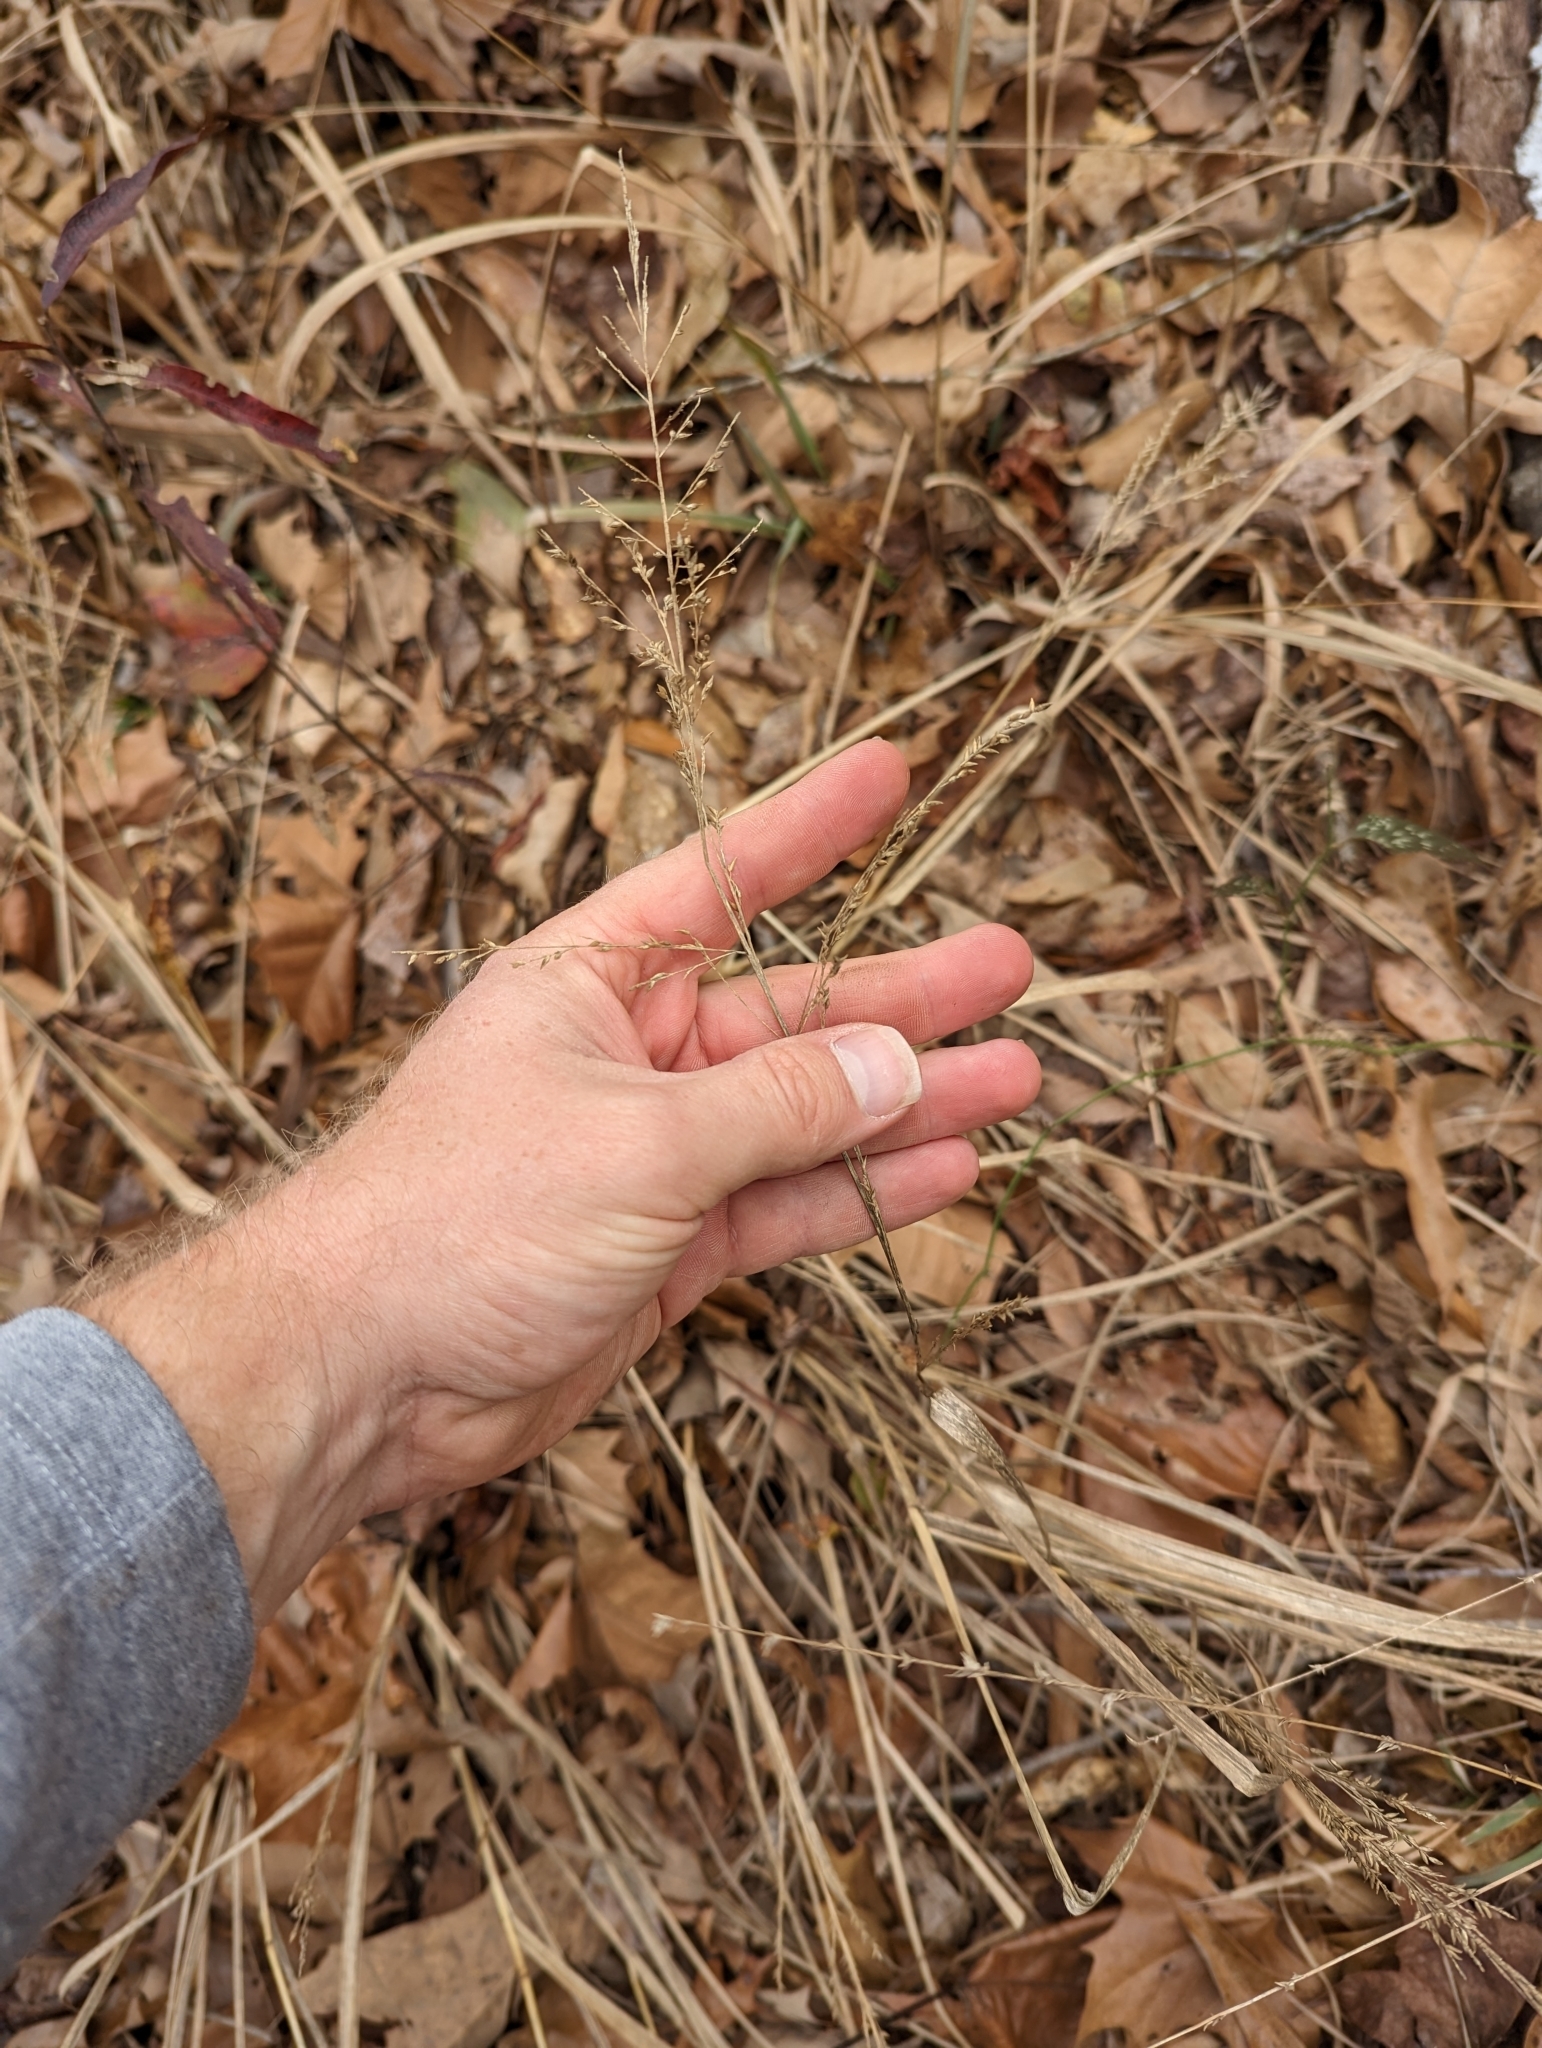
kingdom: Plantae
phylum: Tracheophyta
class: Liliopsida
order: Poales
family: Poaceae
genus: Coleataenia
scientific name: Coleataenia anceps
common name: Beaked panic grass
